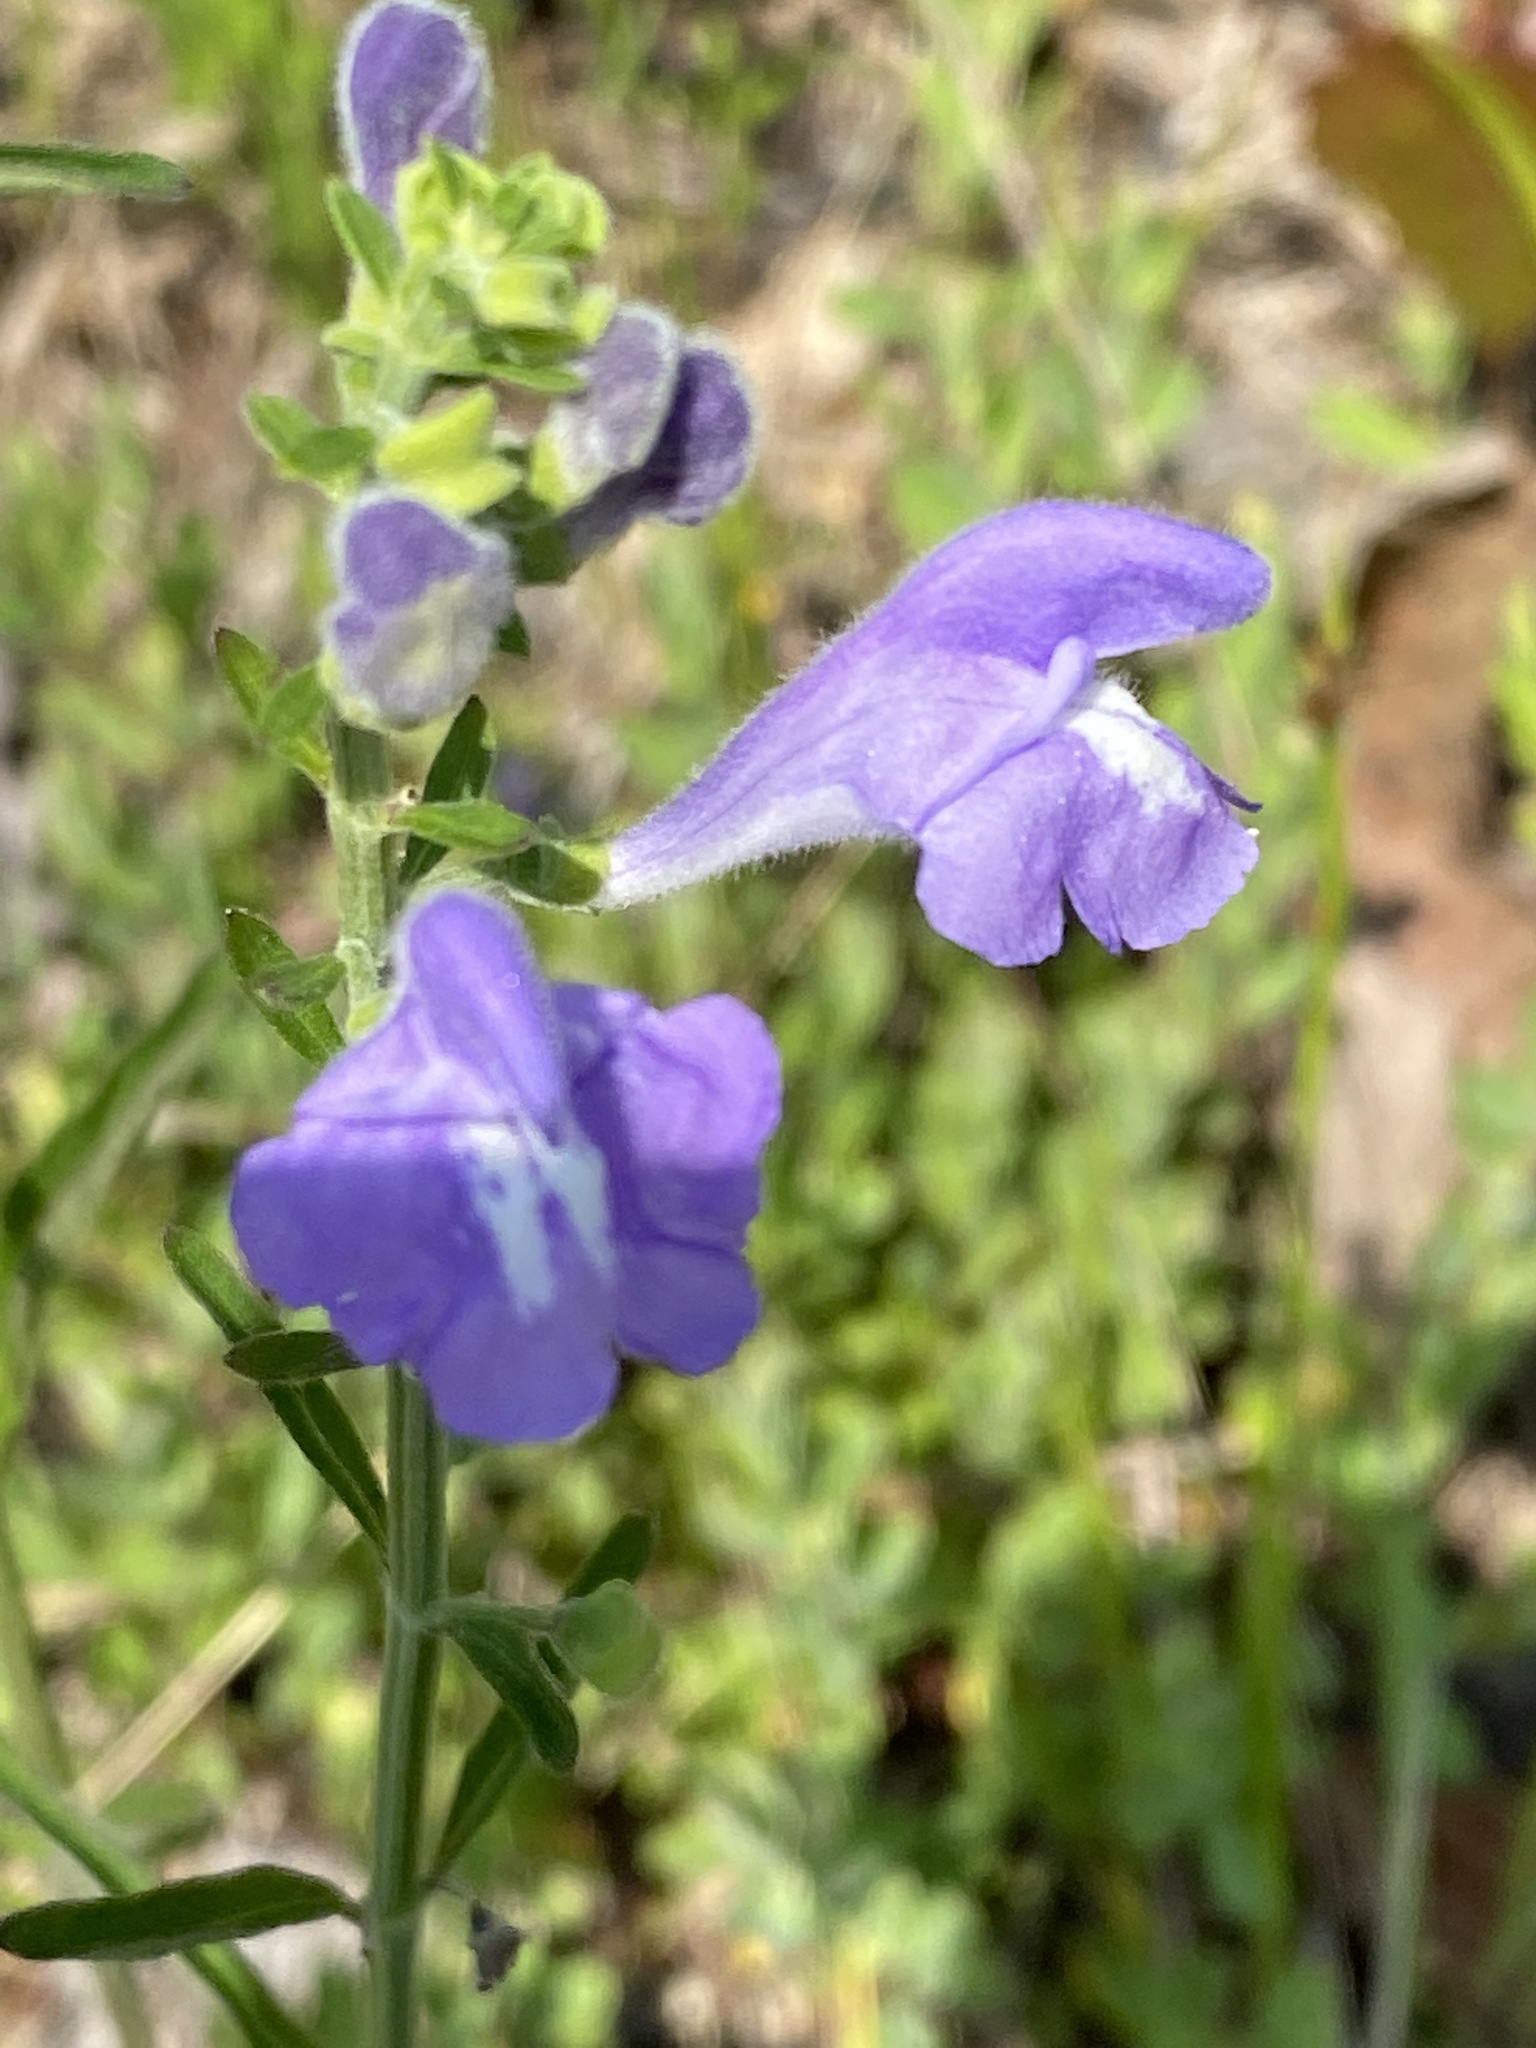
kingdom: Plantae
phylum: Tracheophyta
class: Magnoliopsida
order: Lamiales
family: Lamiaceae
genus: Scutellaria
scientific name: Scutellaria integrifolia
